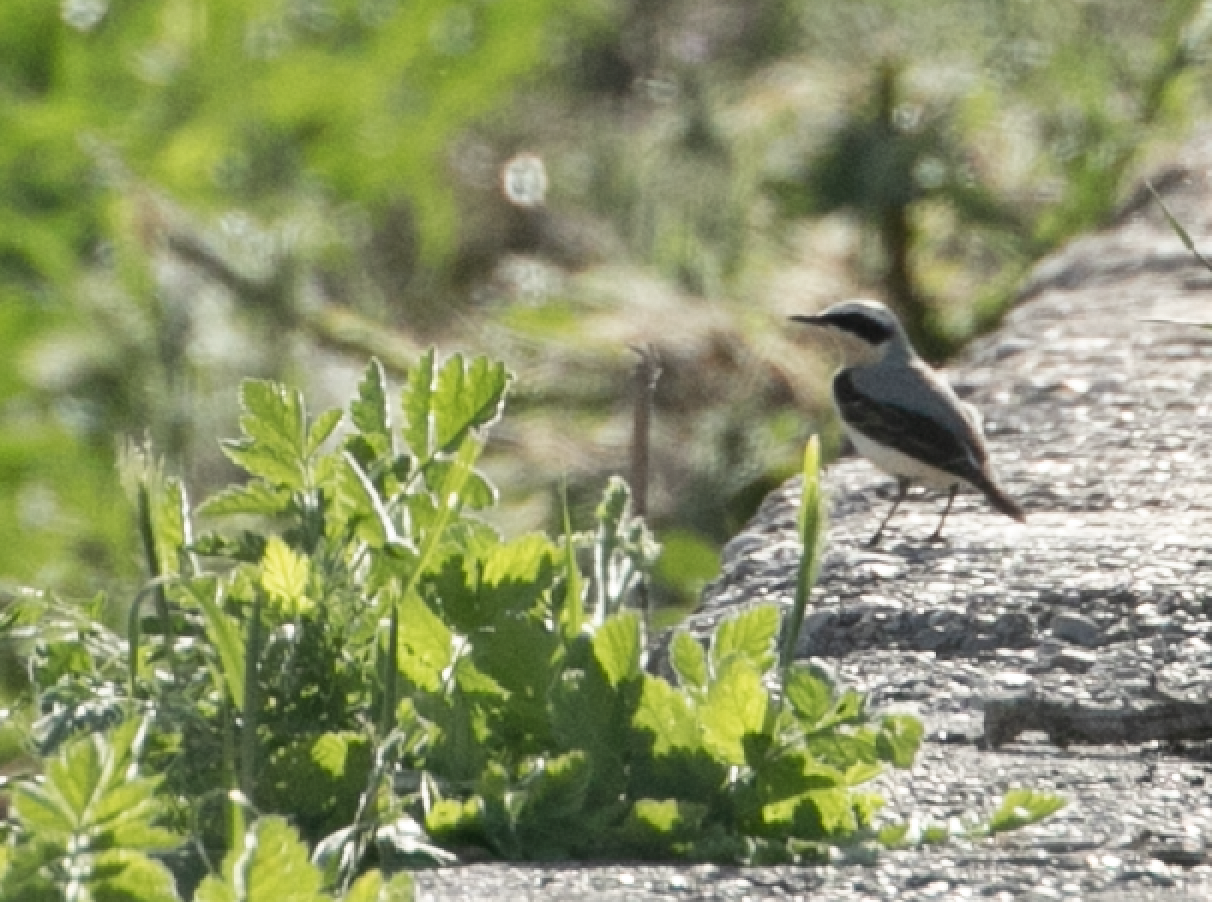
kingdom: Animalia
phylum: Chordata
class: Aves
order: Passeriformes
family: Muscicapidae
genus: Oenanthe
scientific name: Oenanthe oenanthe
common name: Northern wheatear
